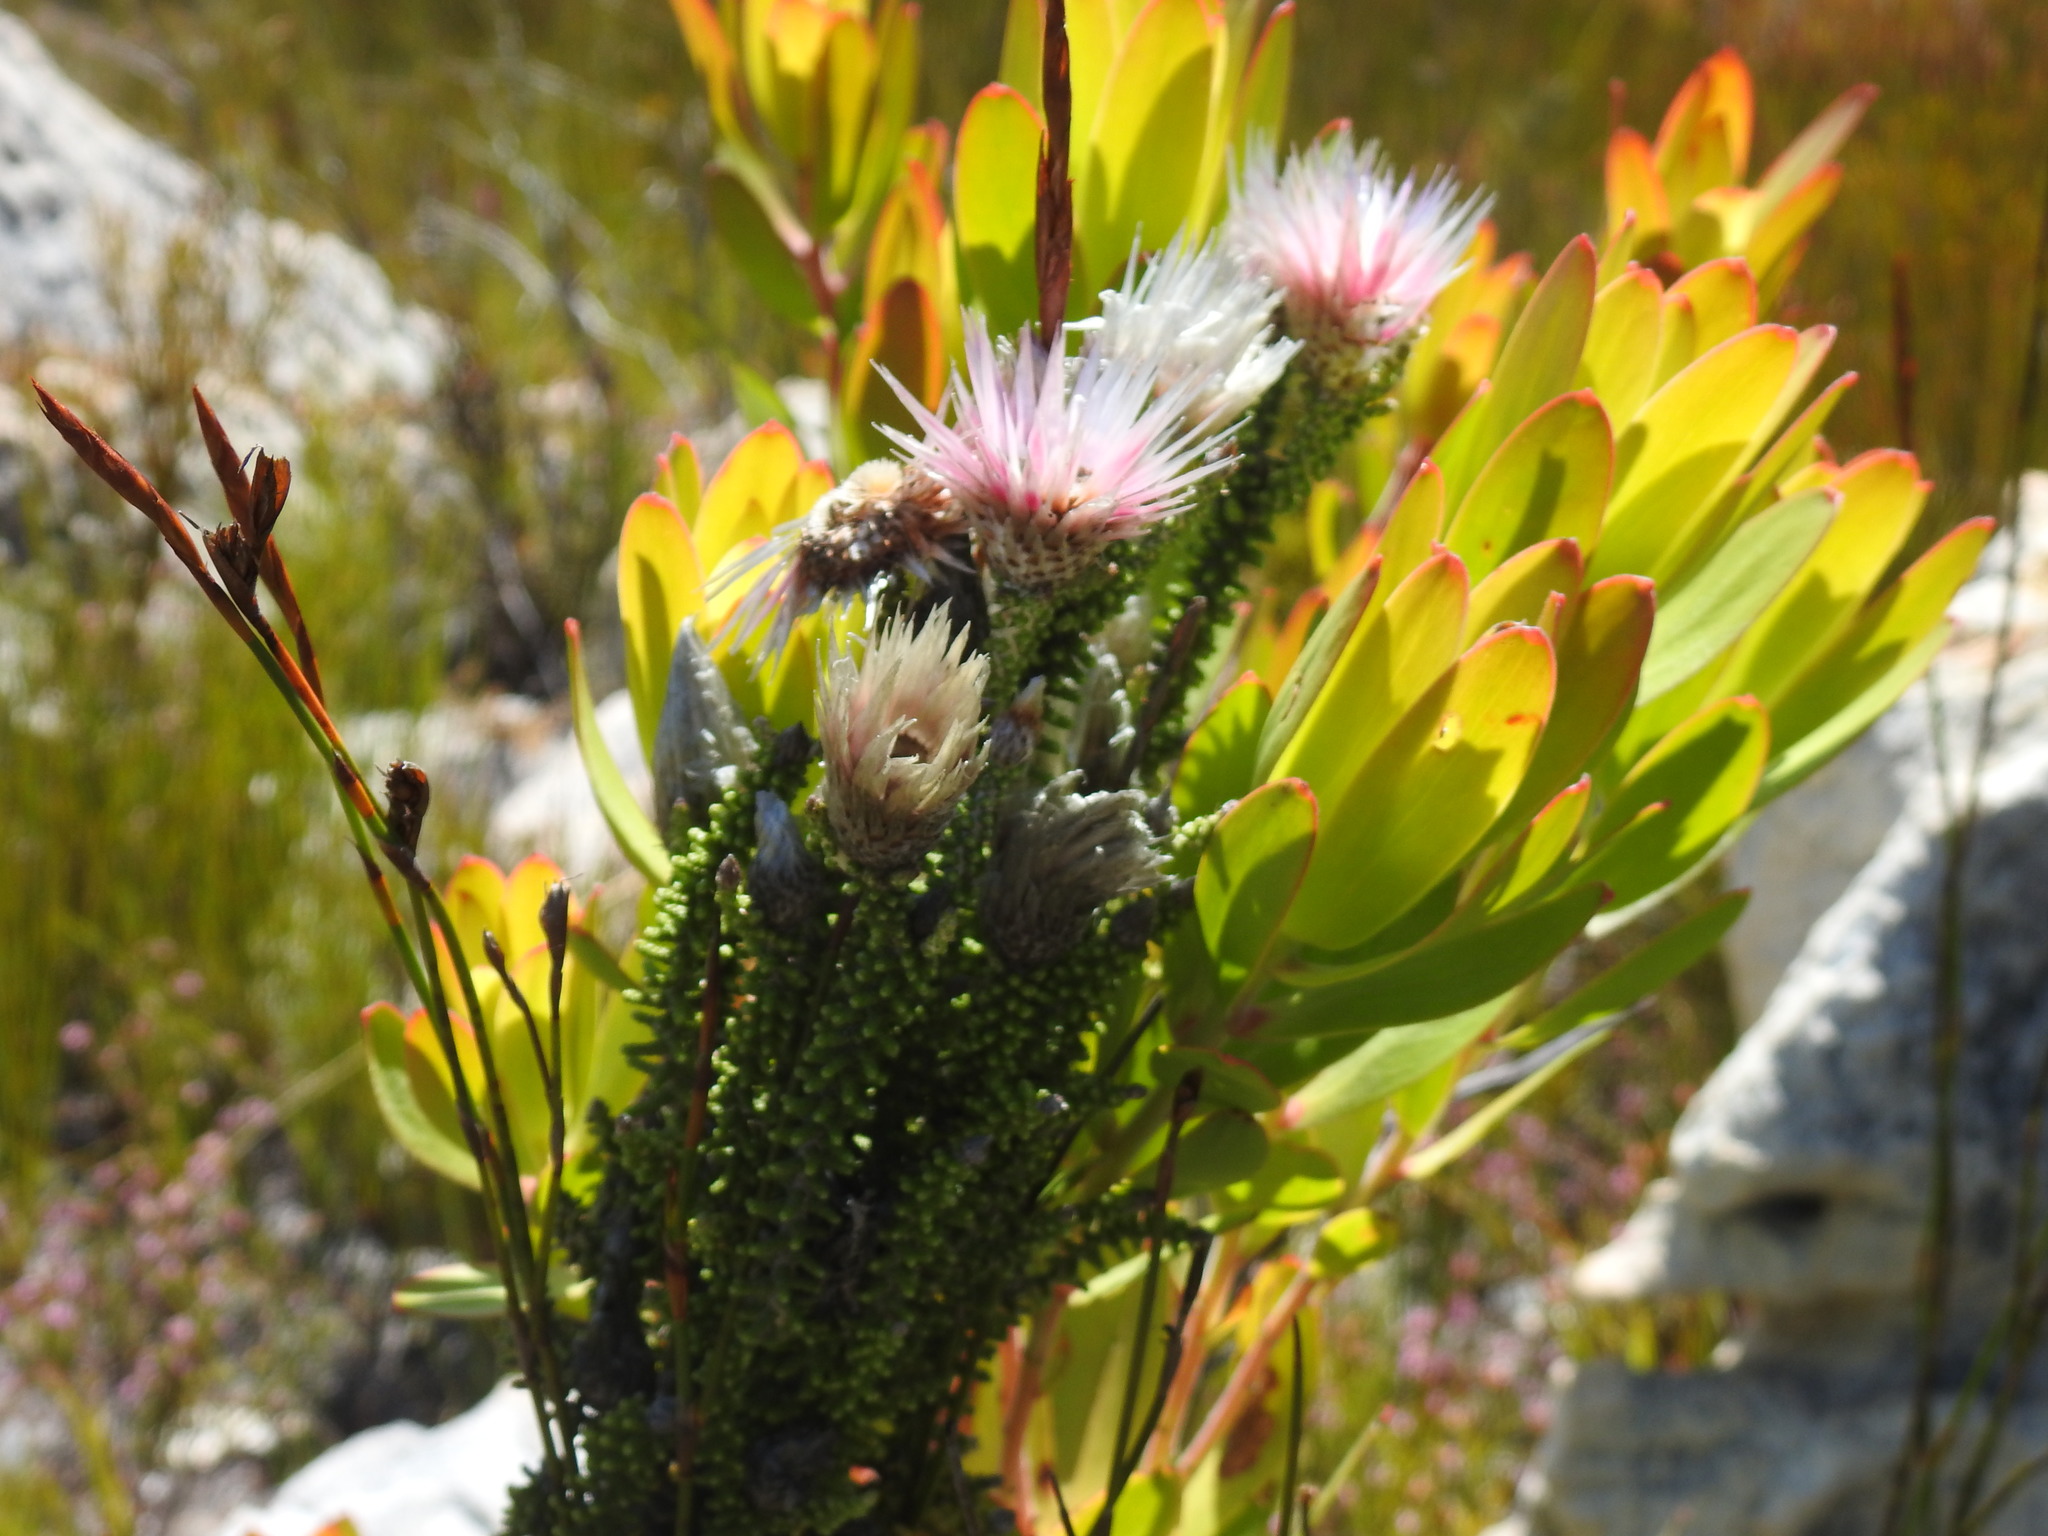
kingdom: Plantae
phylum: Tracheophyta
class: Magnoliopsida
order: Asterales
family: Asteraceae
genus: Phaenocoma
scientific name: Phaenocoma prolifera
